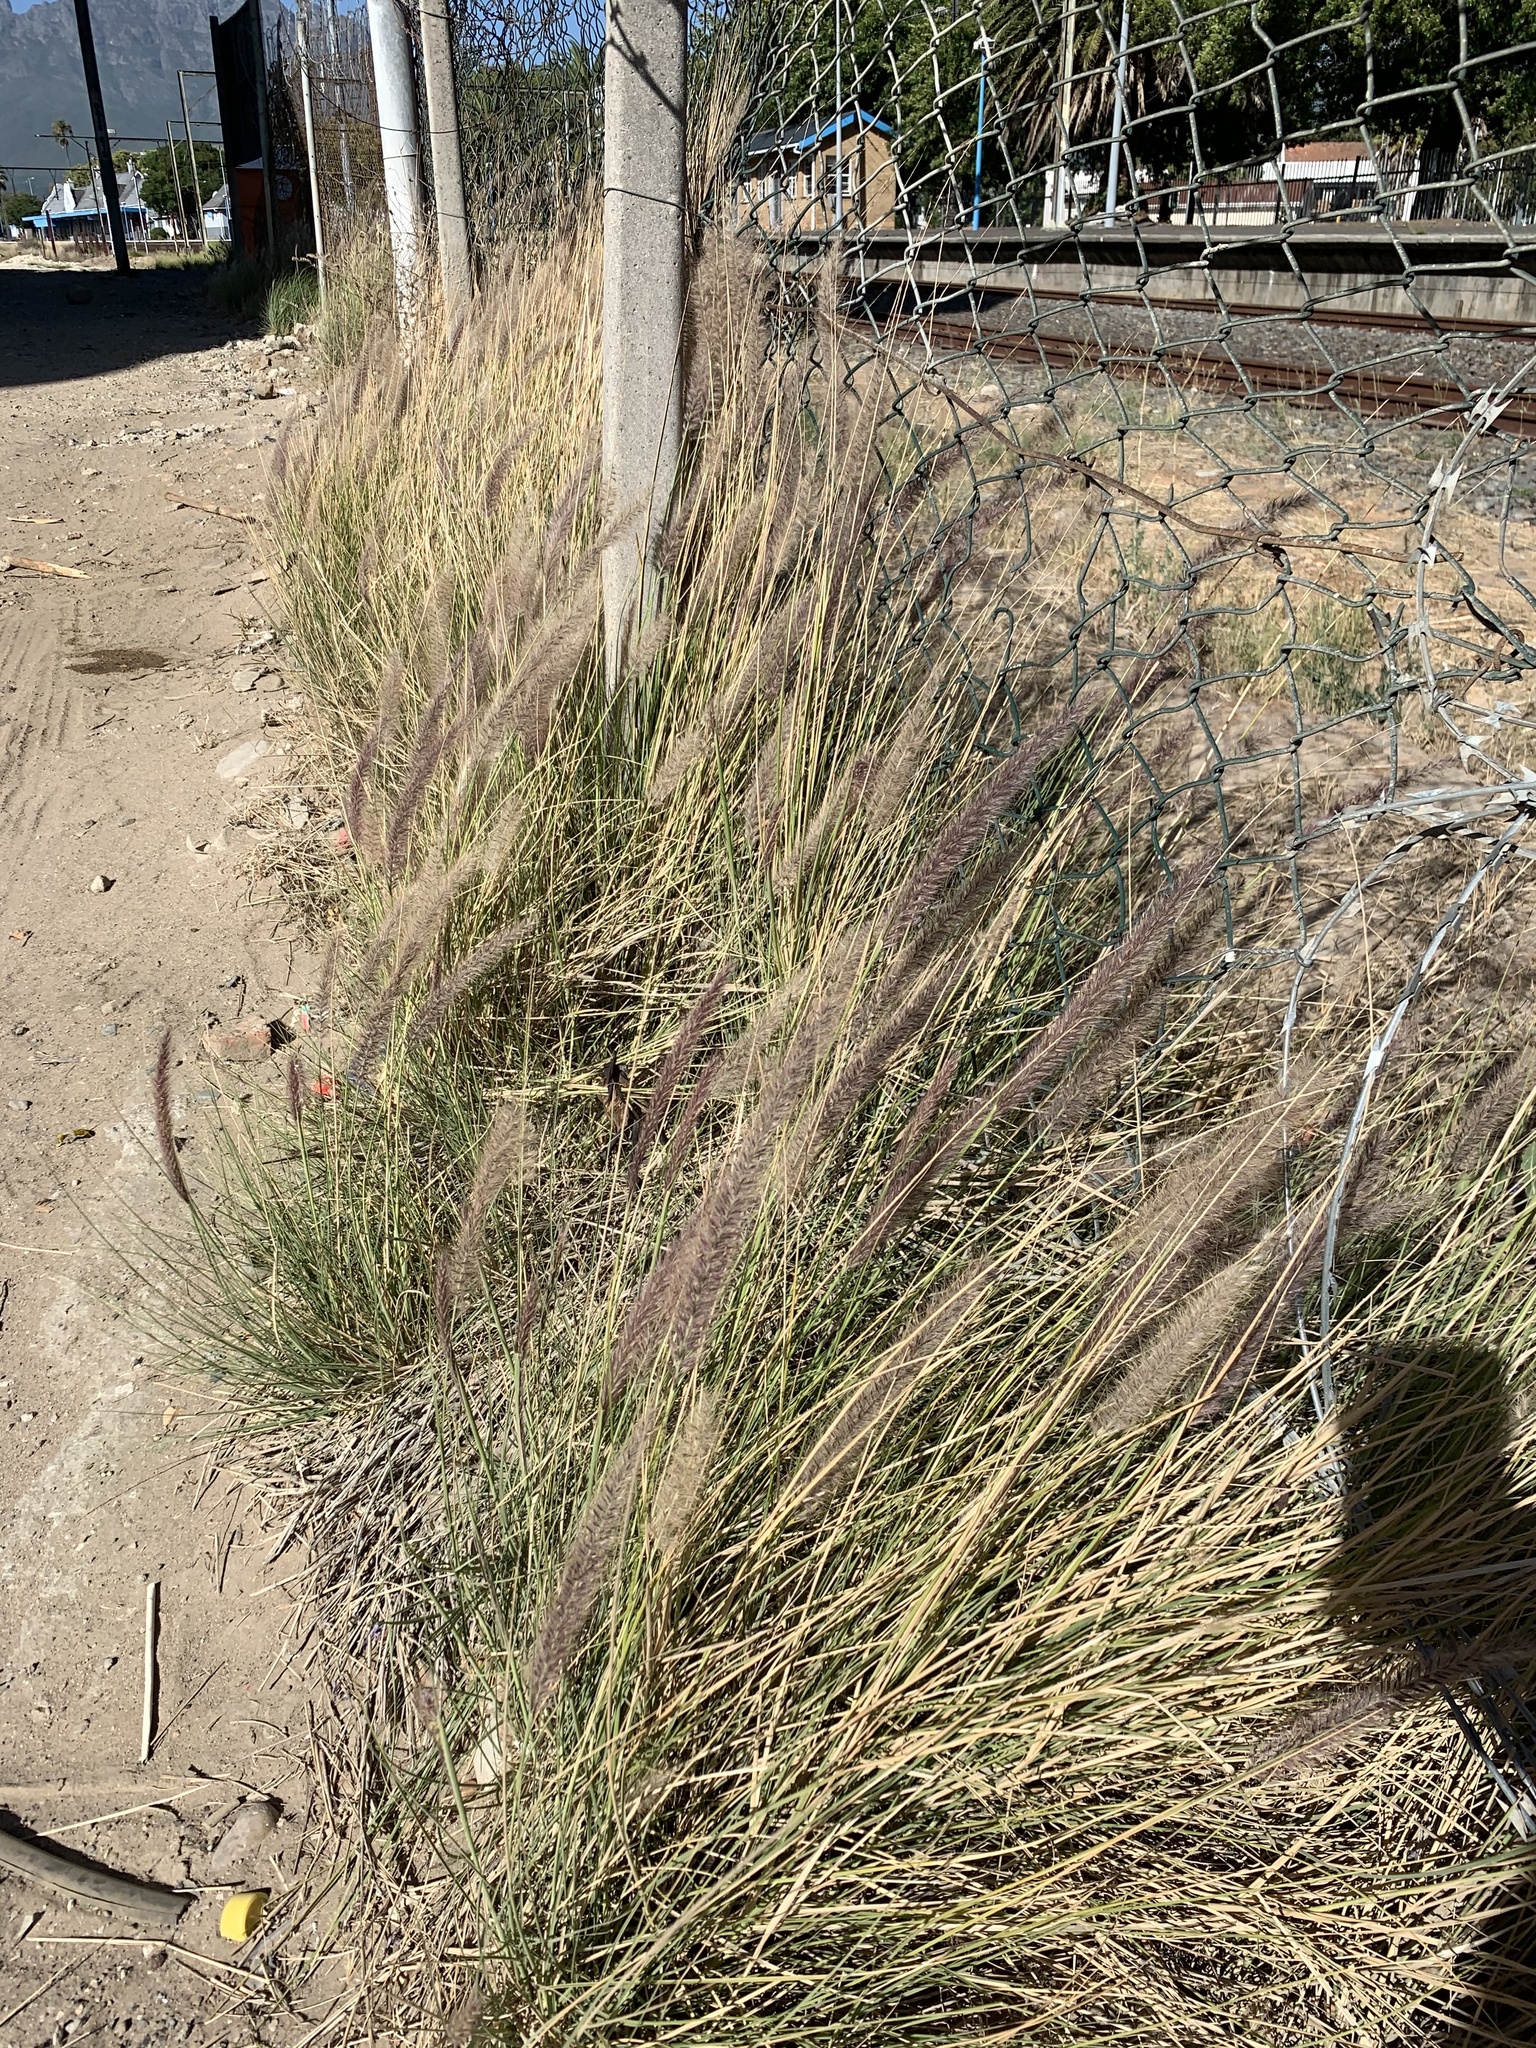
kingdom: Plantae
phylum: Tracheophyta
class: Liliopsida
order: Poales
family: Poaceae
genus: Cenchrus
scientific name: Cenchrus setaceus
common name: Crimson fountaingrass
